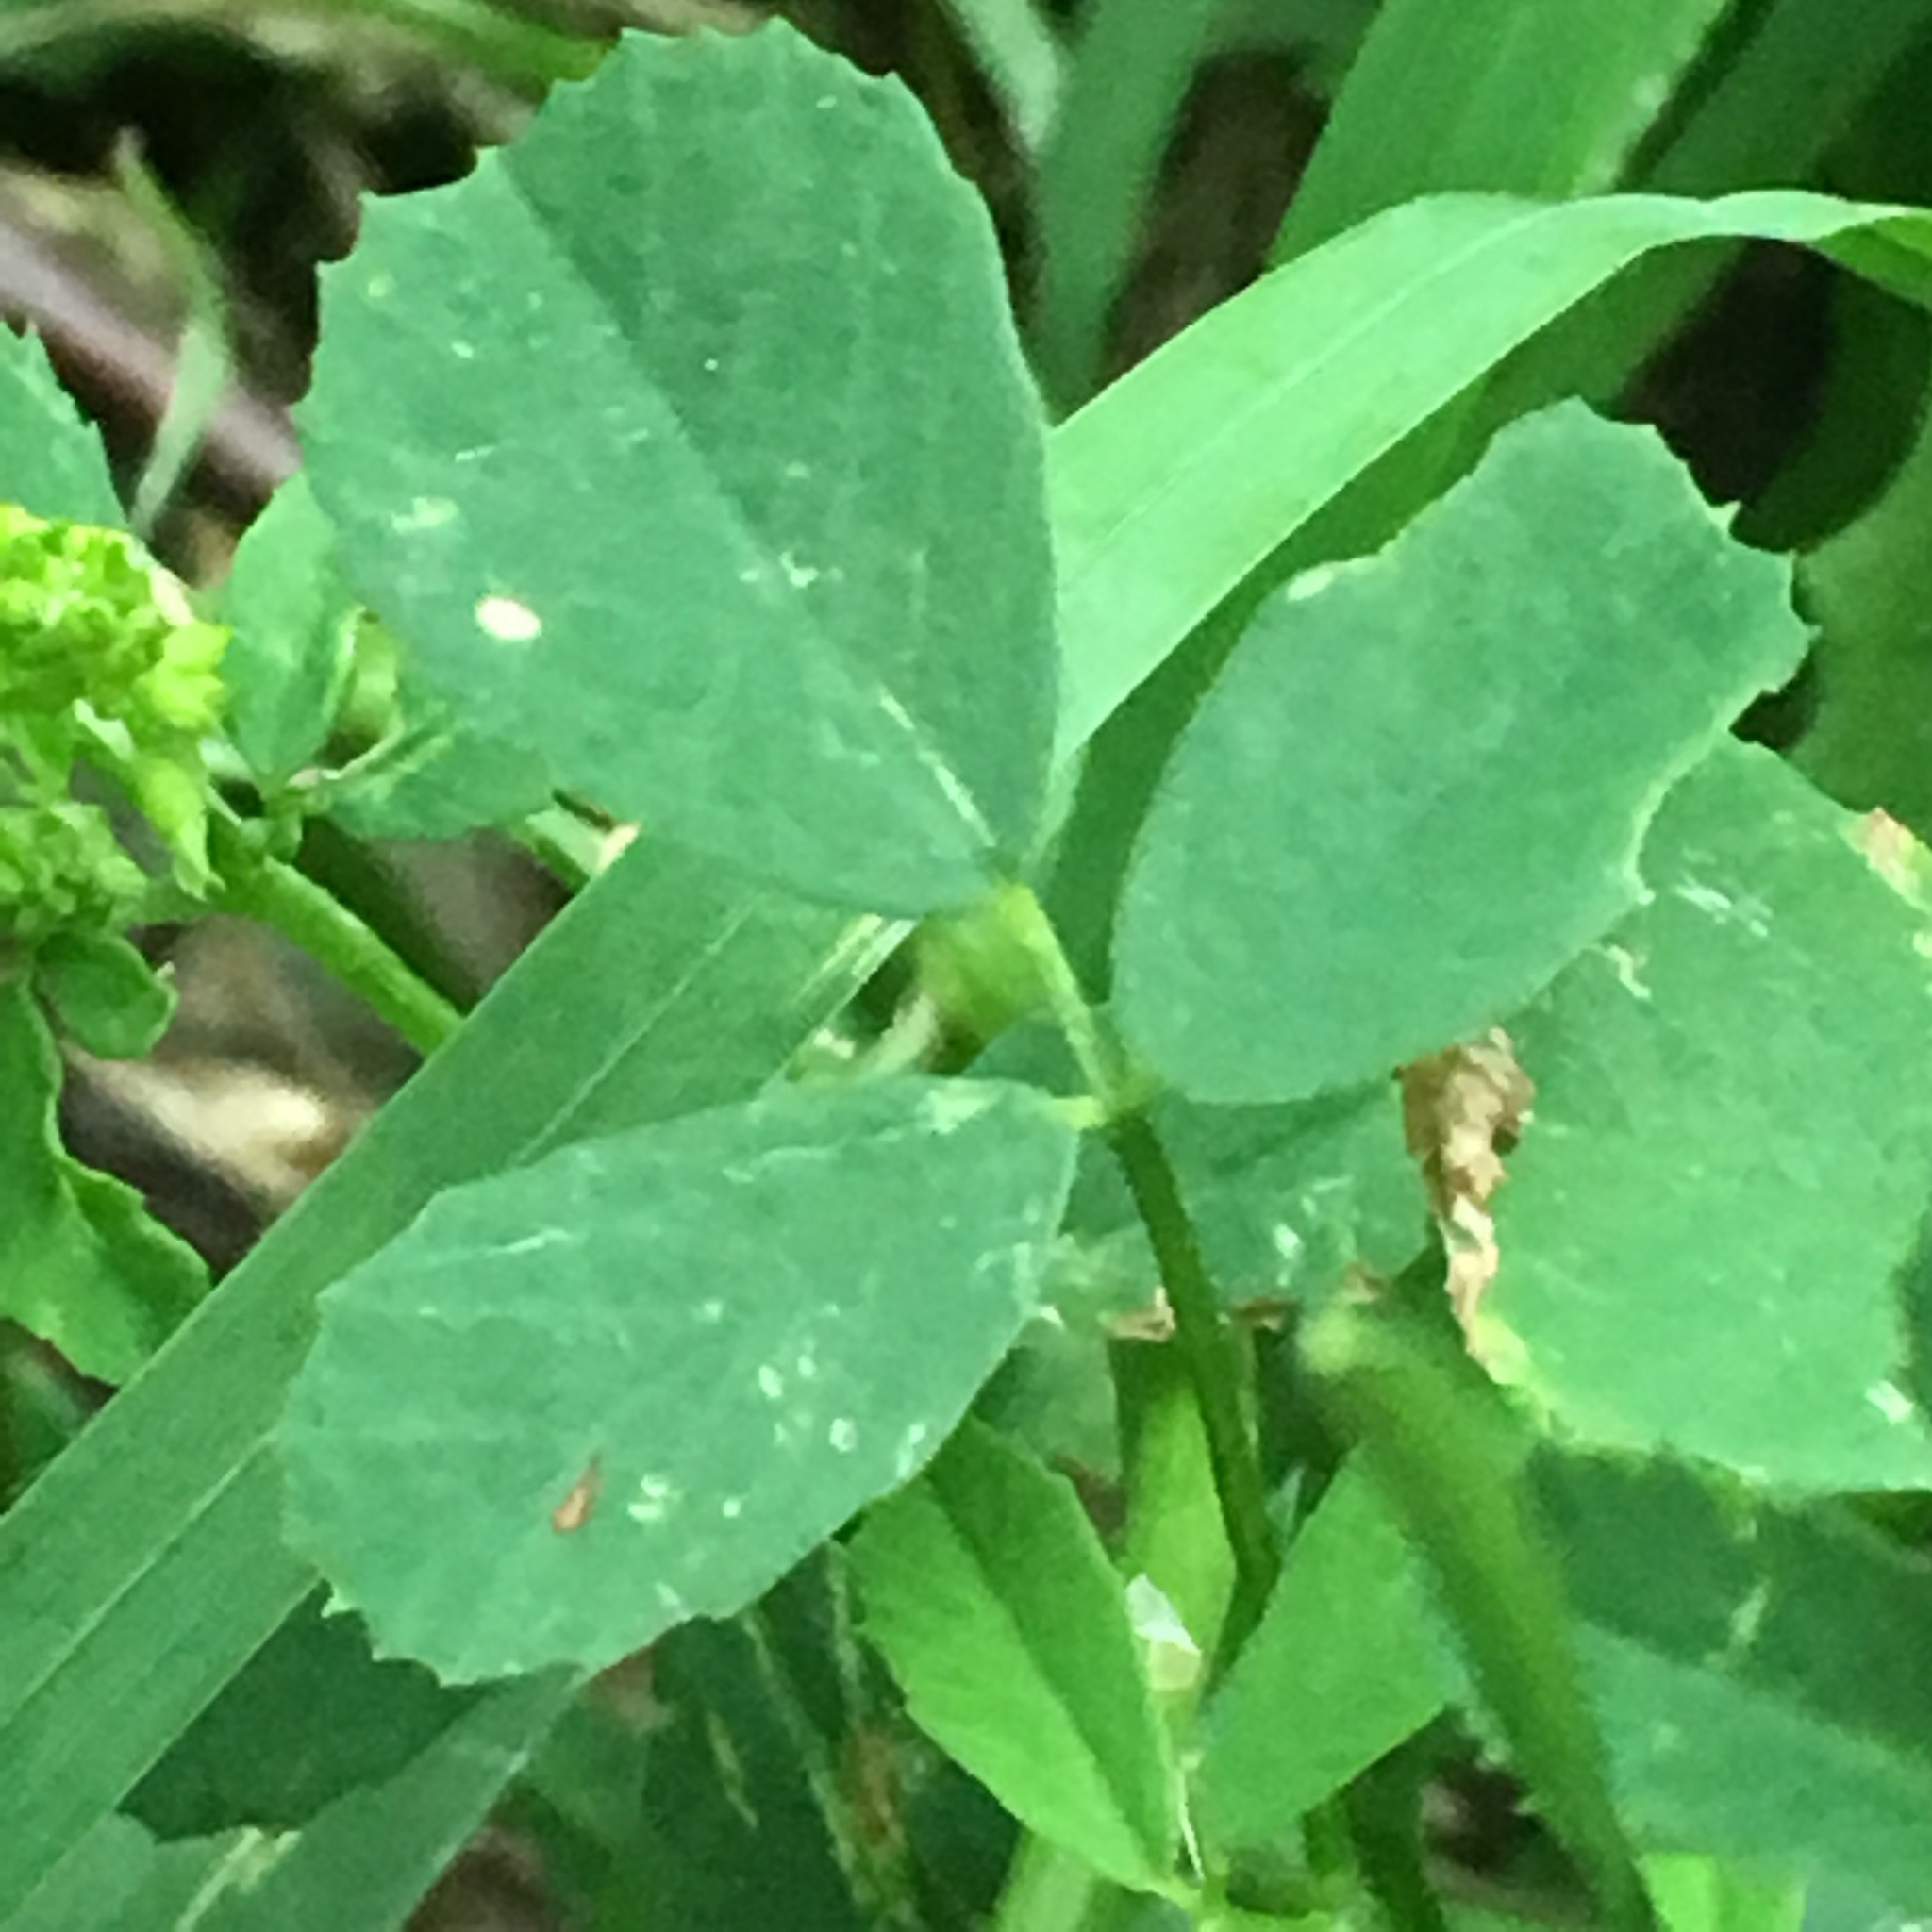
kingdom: Plantae
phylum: Tracheophyta
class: Magnoliopsida
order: Fabales
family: Fabaceae
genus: Melilotus
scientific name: Melilotus officinalis
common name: Sweetclover
